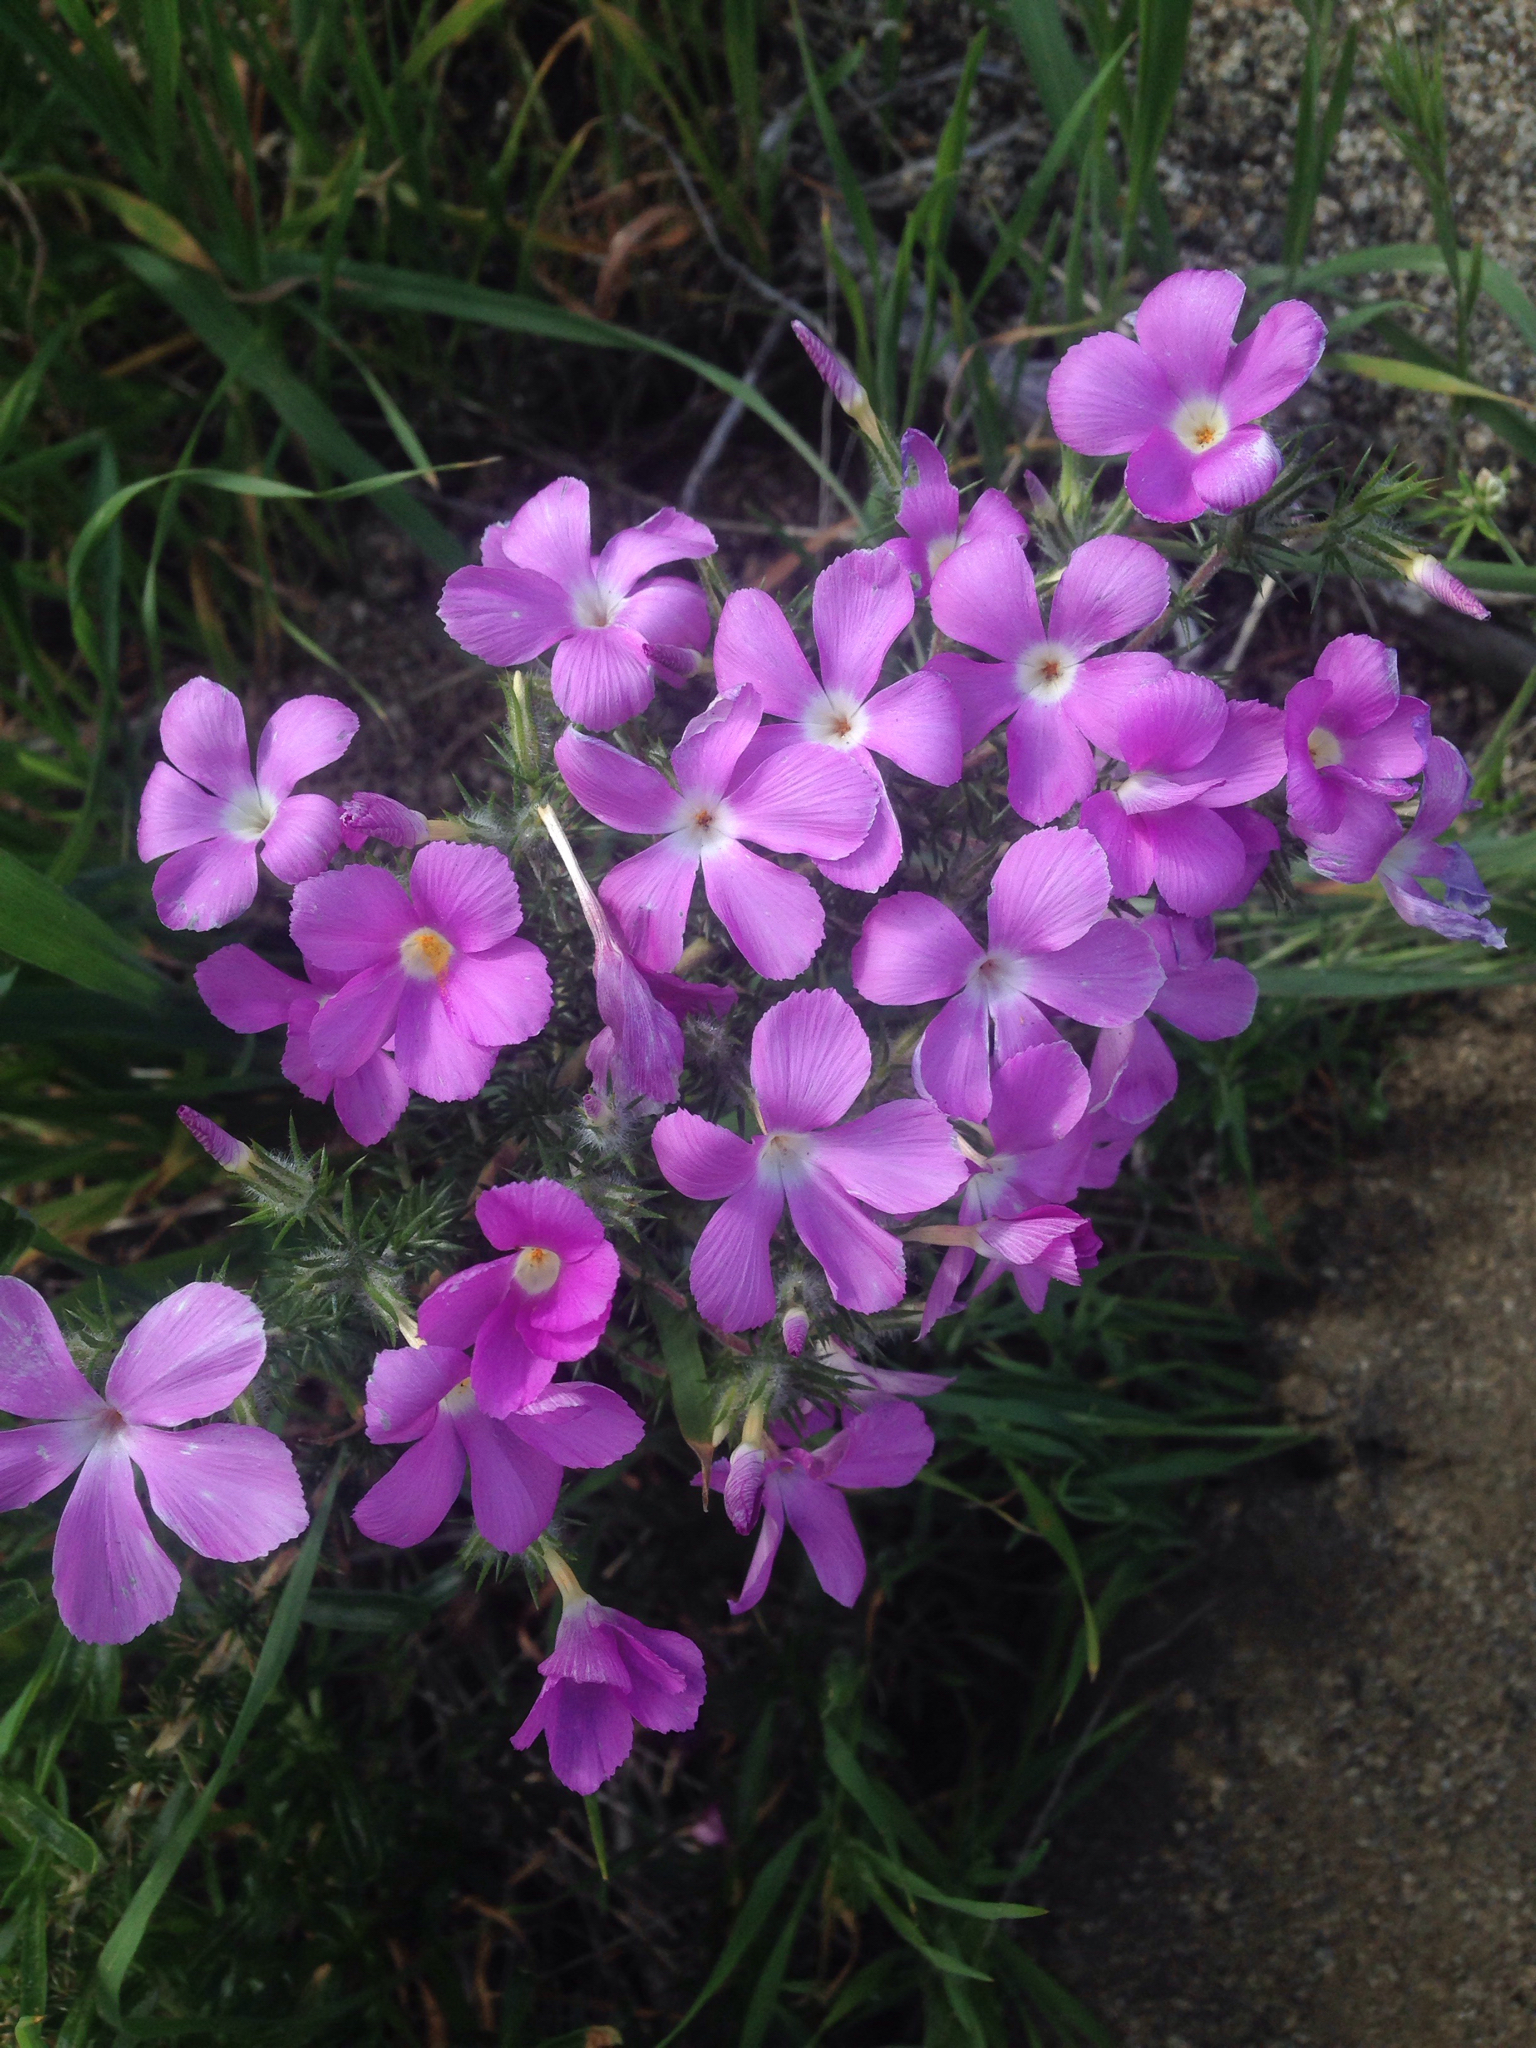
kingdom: Plantae
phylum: Tracheophyta
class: Magnoliopsida
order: Ericales
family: Polemoniaceae
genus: Linanthus
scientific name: Linanthus californicus
